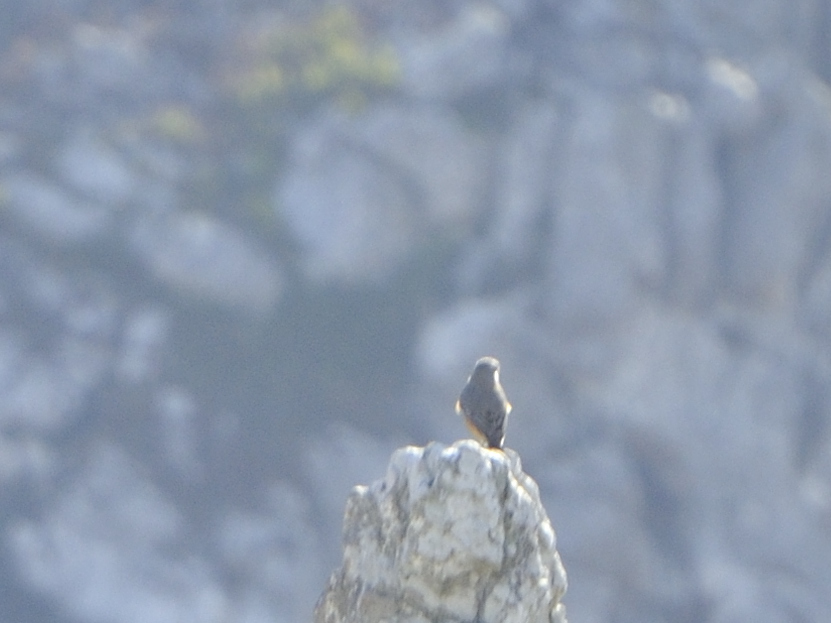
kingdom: Animalia
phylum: Chordata
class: Aves
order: Passeriformes
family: Muscicapidae
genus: Monticola
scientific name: Monticola explorator
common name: Sentinel rock thrush
